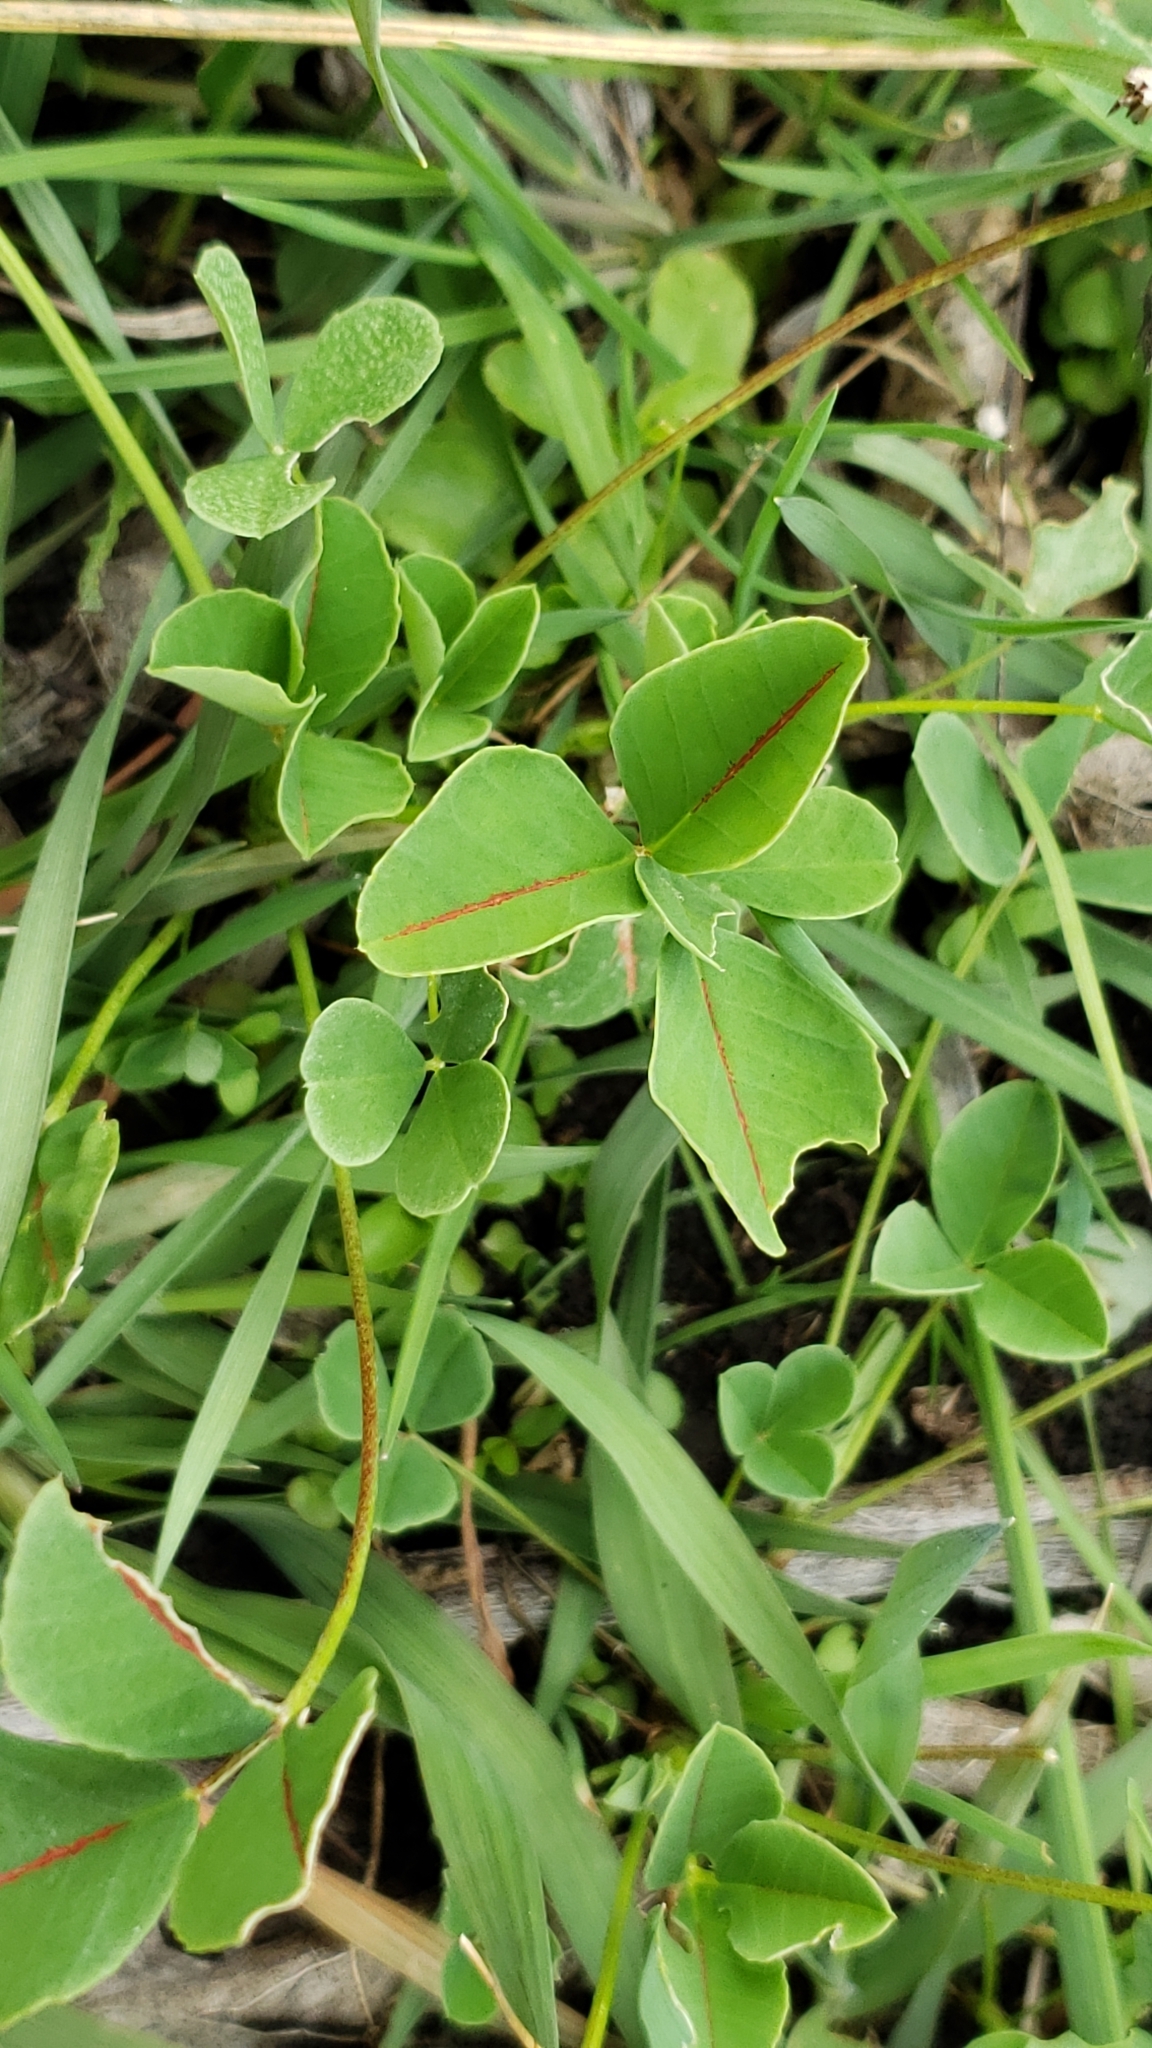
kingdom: Plantae
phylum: Tracheophyta
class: Magnoliopsida
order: Fabales
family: Fabaceae
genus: Melilotus
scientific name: Melilotus indicus
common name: Small melilot
